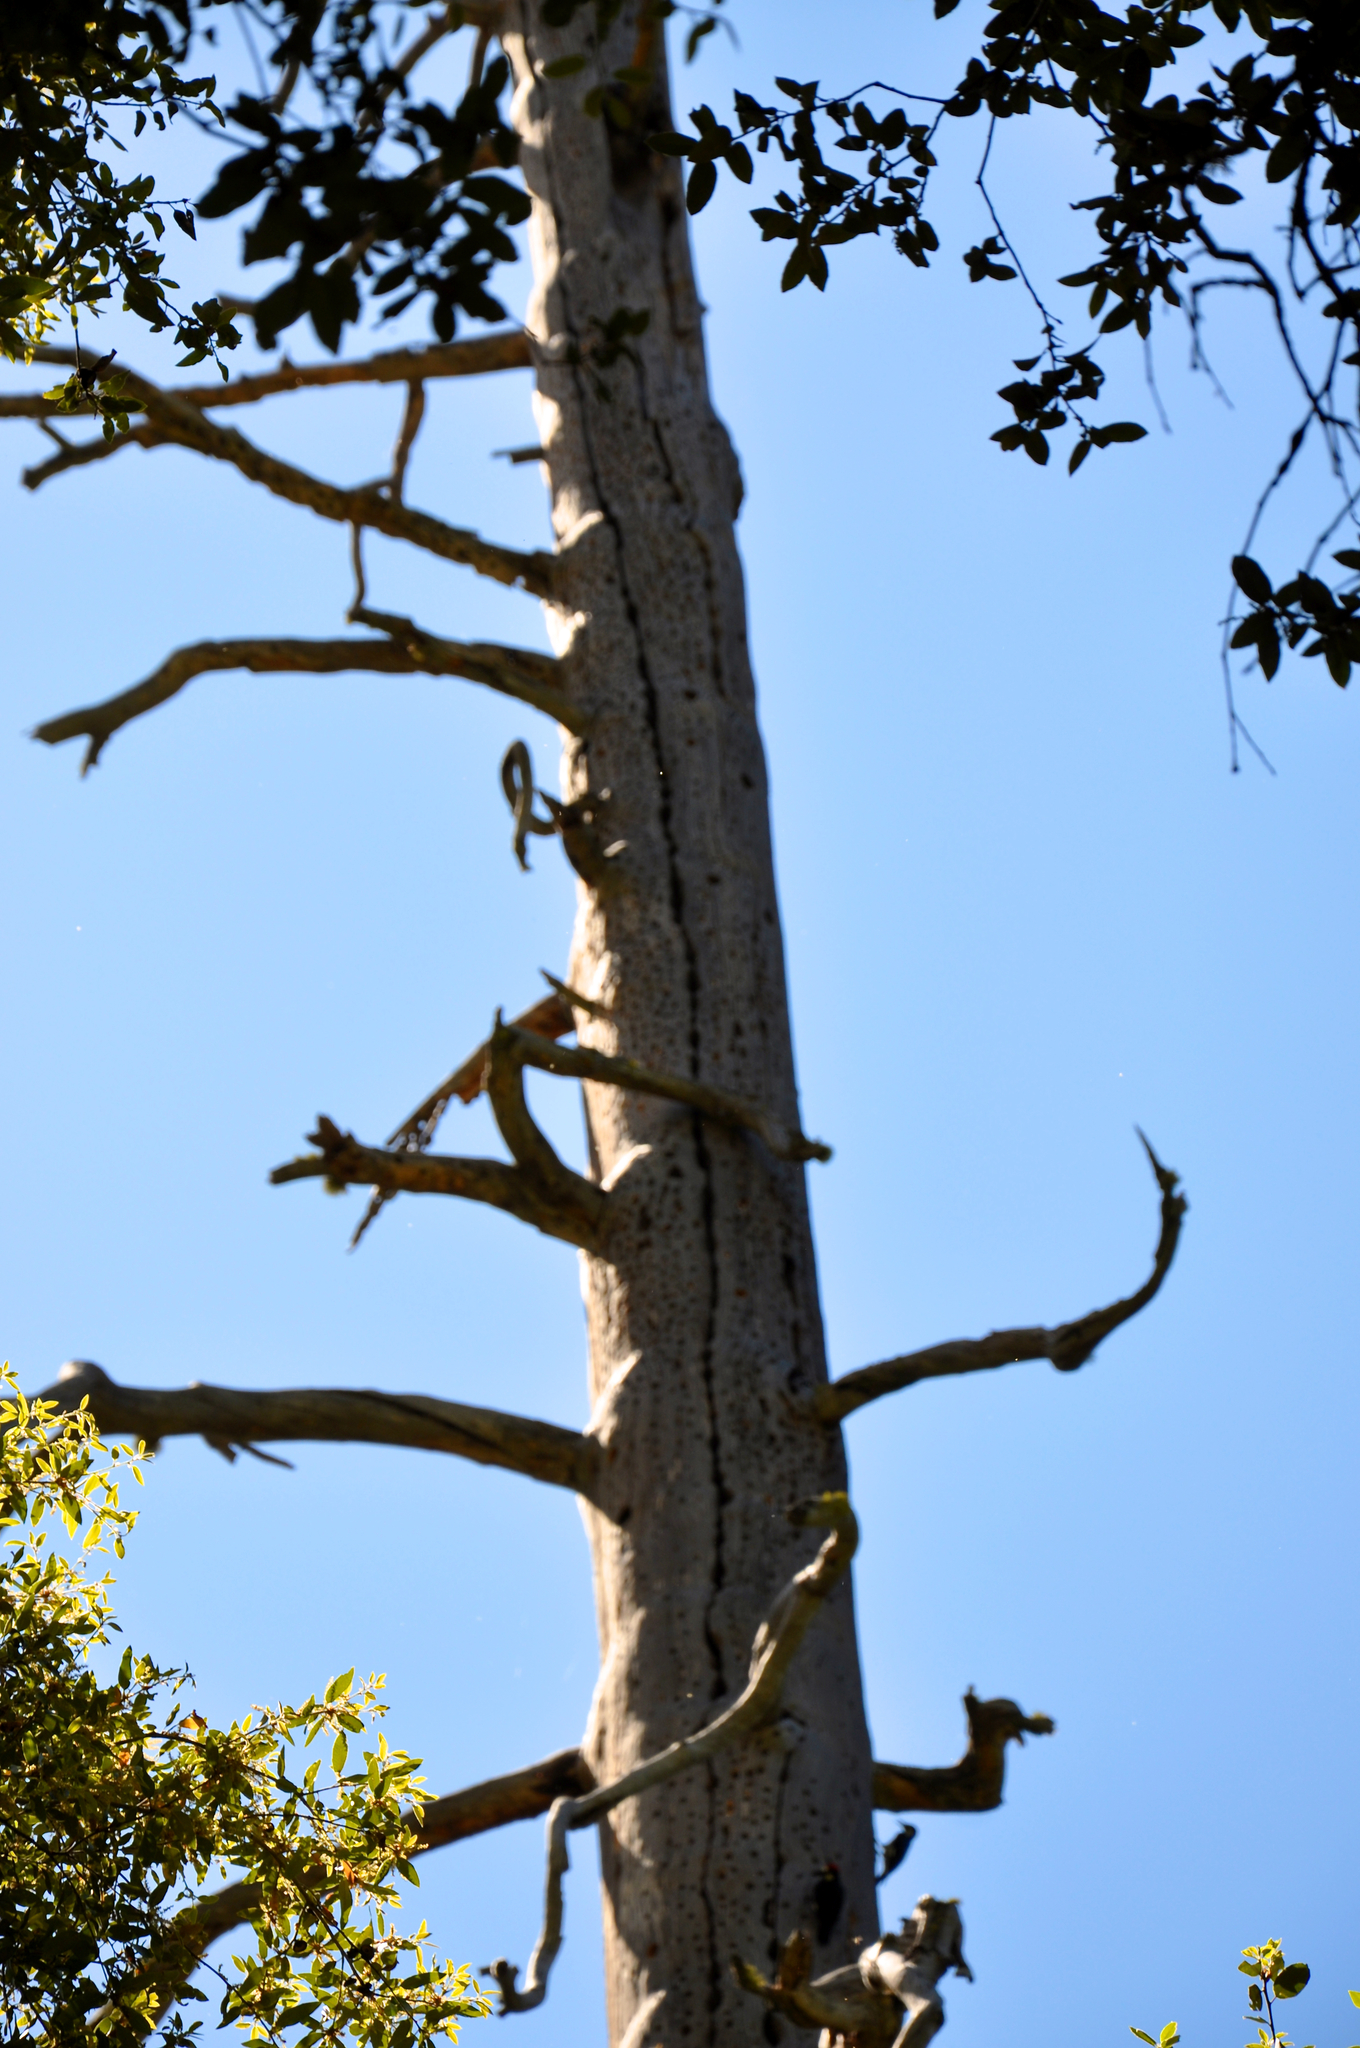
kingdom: Animalia
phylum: Chordata
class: Aves
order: Piciformes
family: Picidae
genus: Melanerpes
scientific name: Melanerpes formicivorus
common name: Acorn woodpecker
